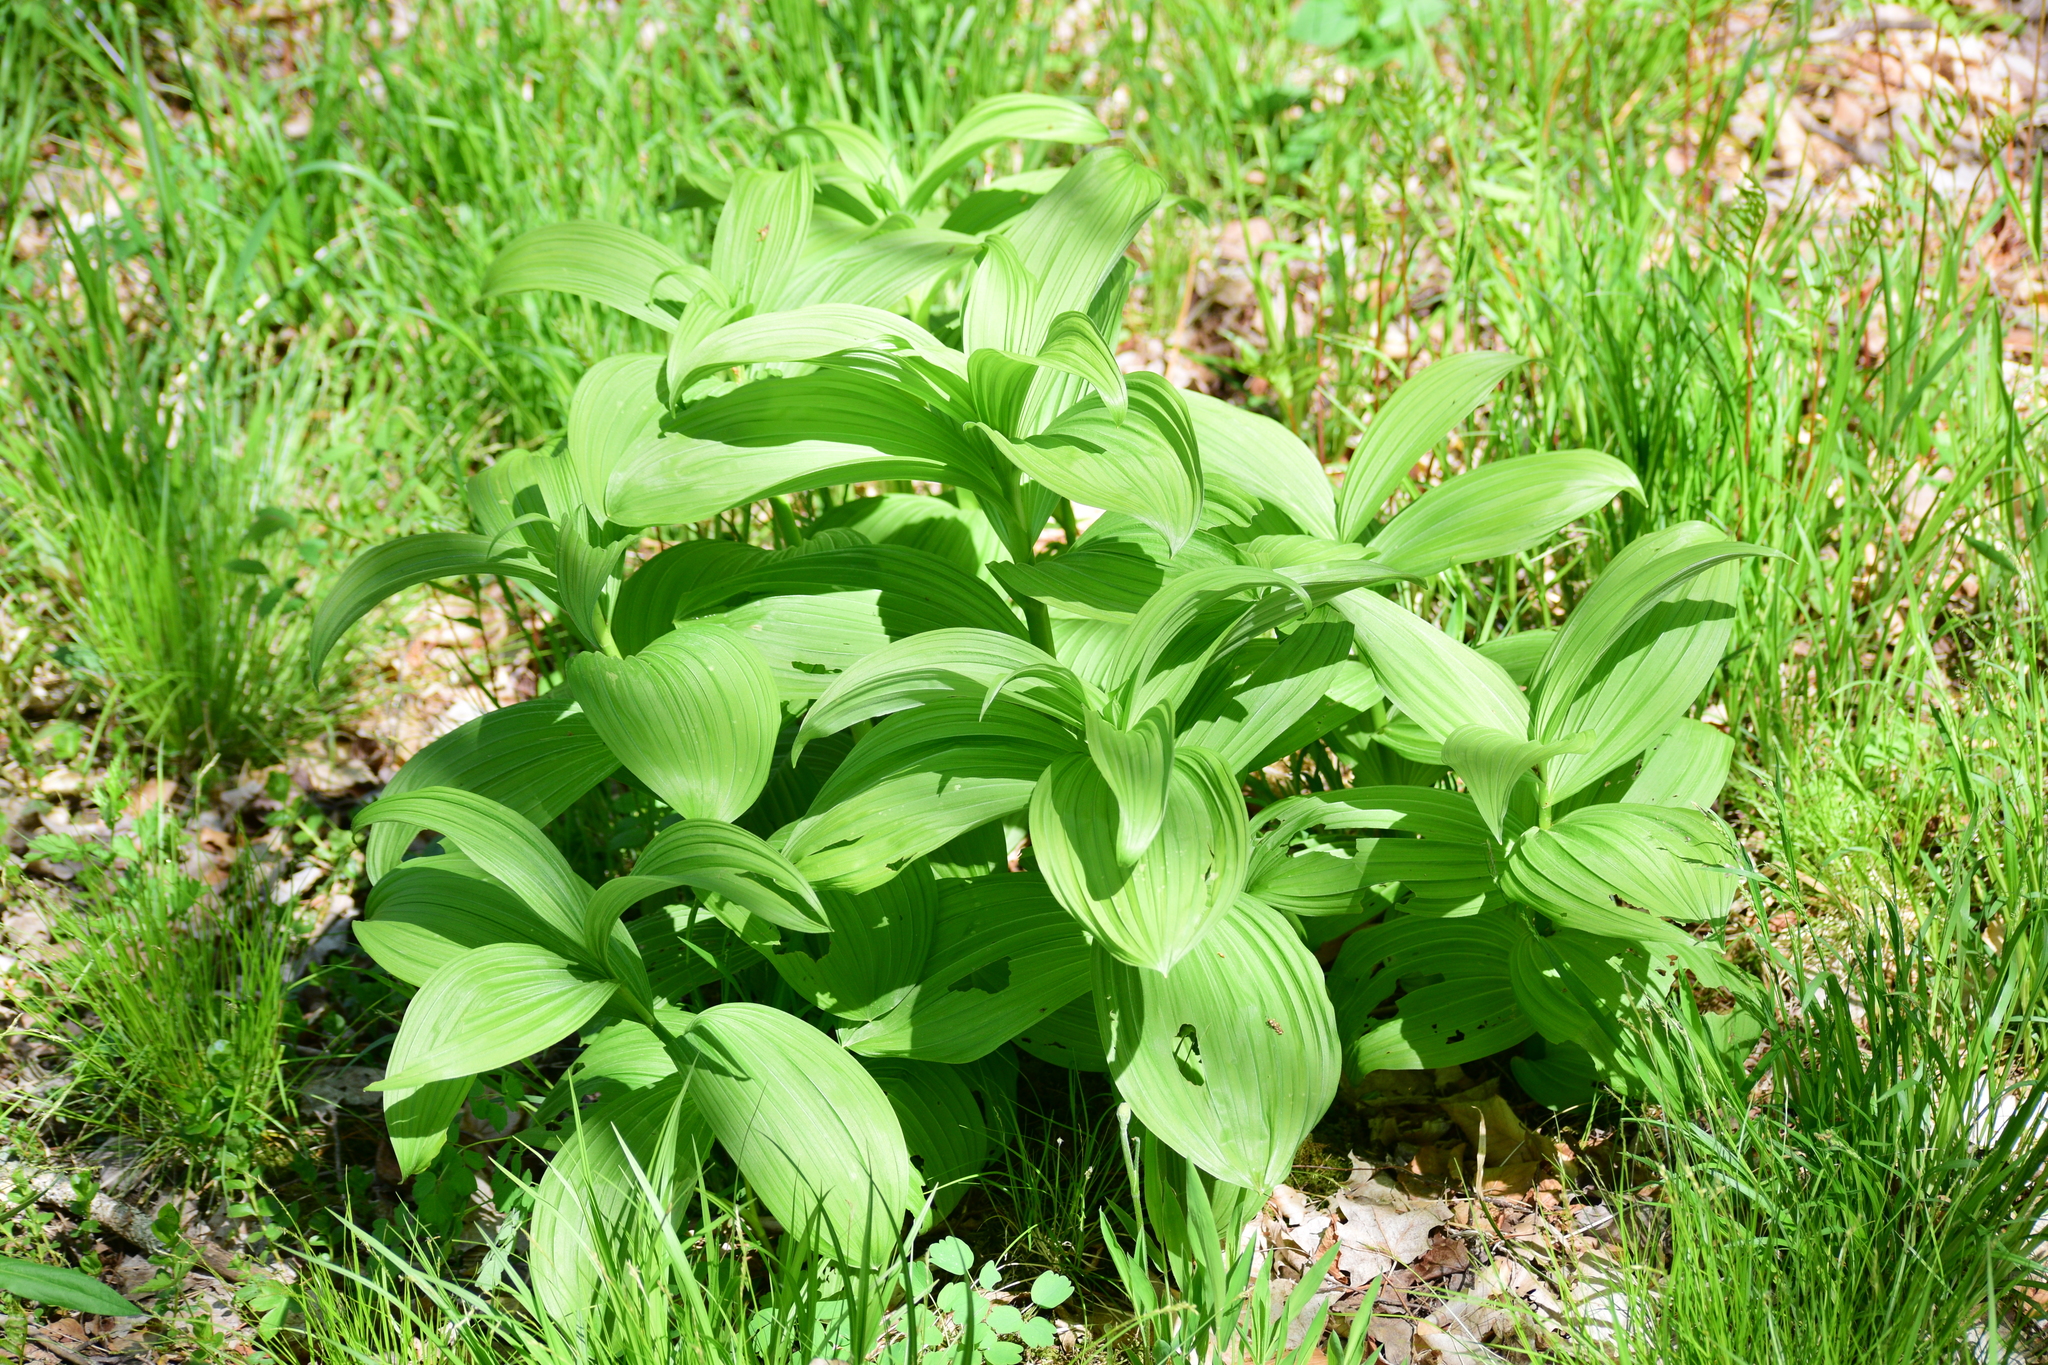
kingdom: Plantae
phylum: Tracheophyta
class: Liliopsida
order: Liliales
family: Melanthiaceae
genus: Veratrum
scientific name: Veratrum viride
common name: American false hellebore
